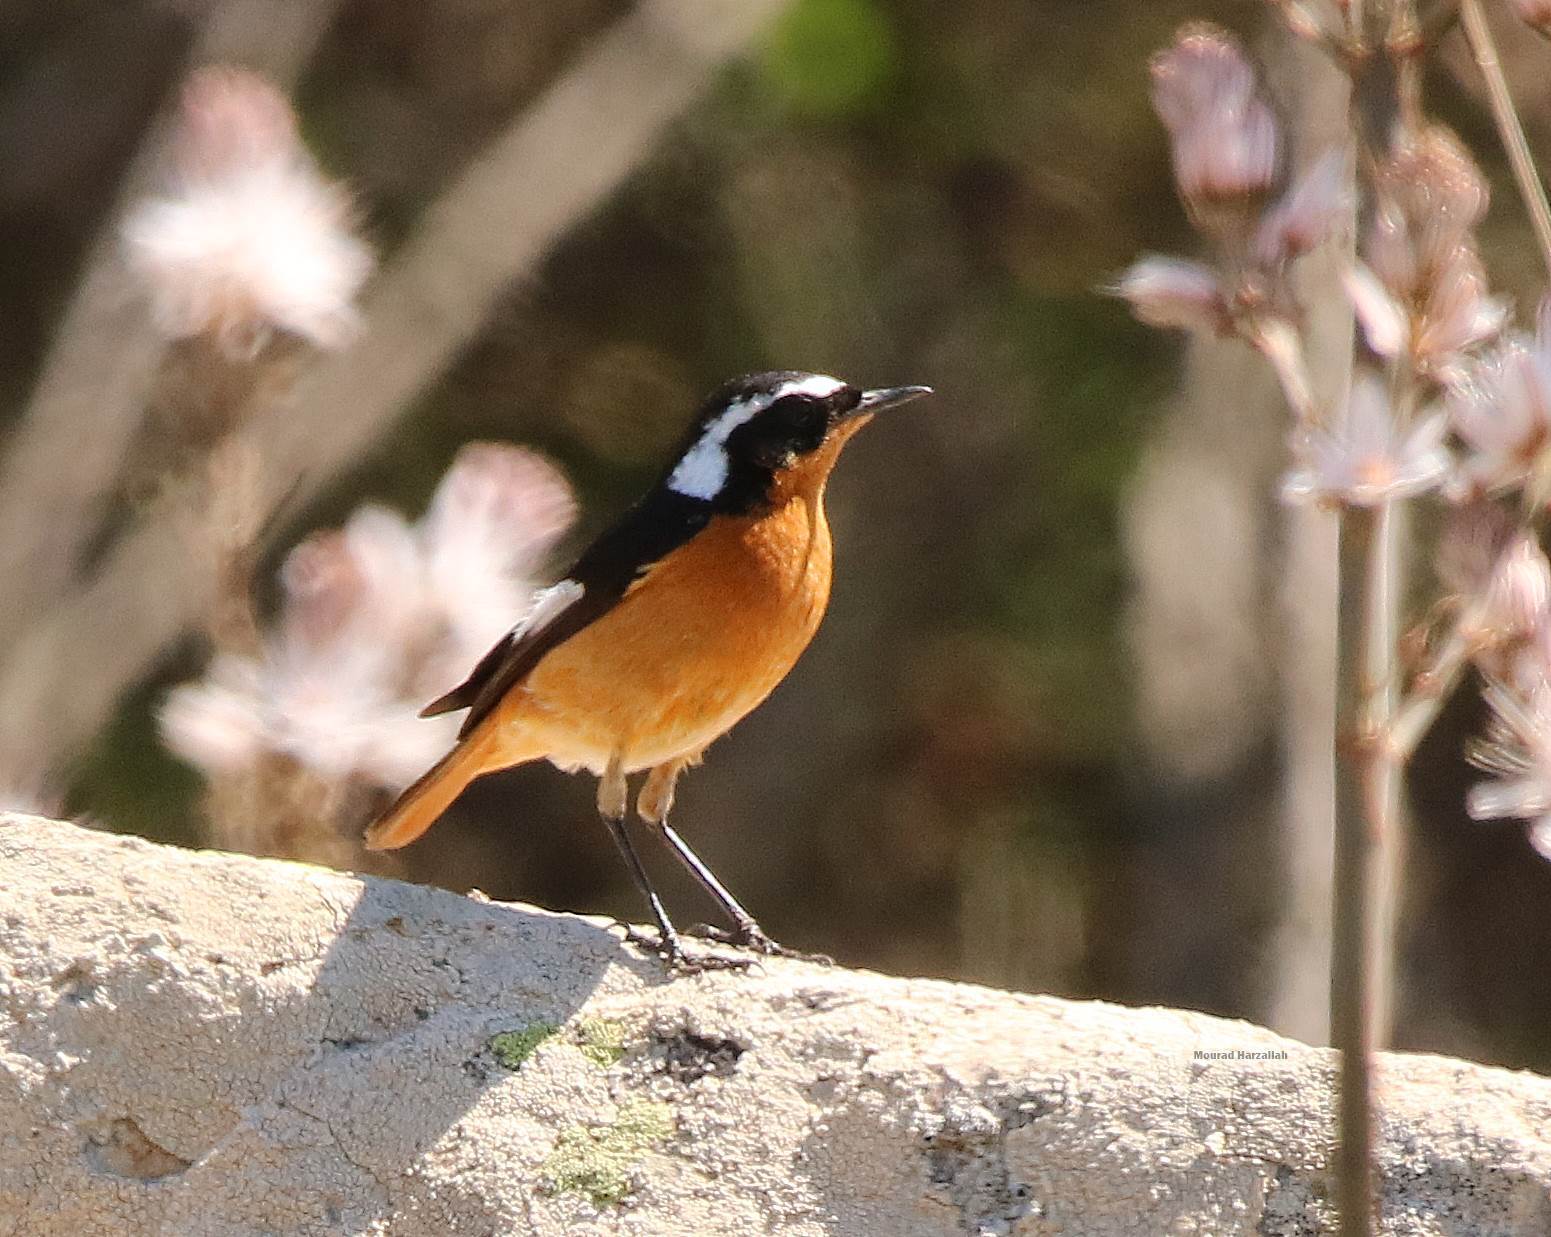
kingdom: Animalia
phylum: Chordata
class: Aves
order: Passeriformes
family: Muscicapidae
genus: Phoenicurus
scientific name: Phoenicurus moussieri
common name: Moussier's redstart
